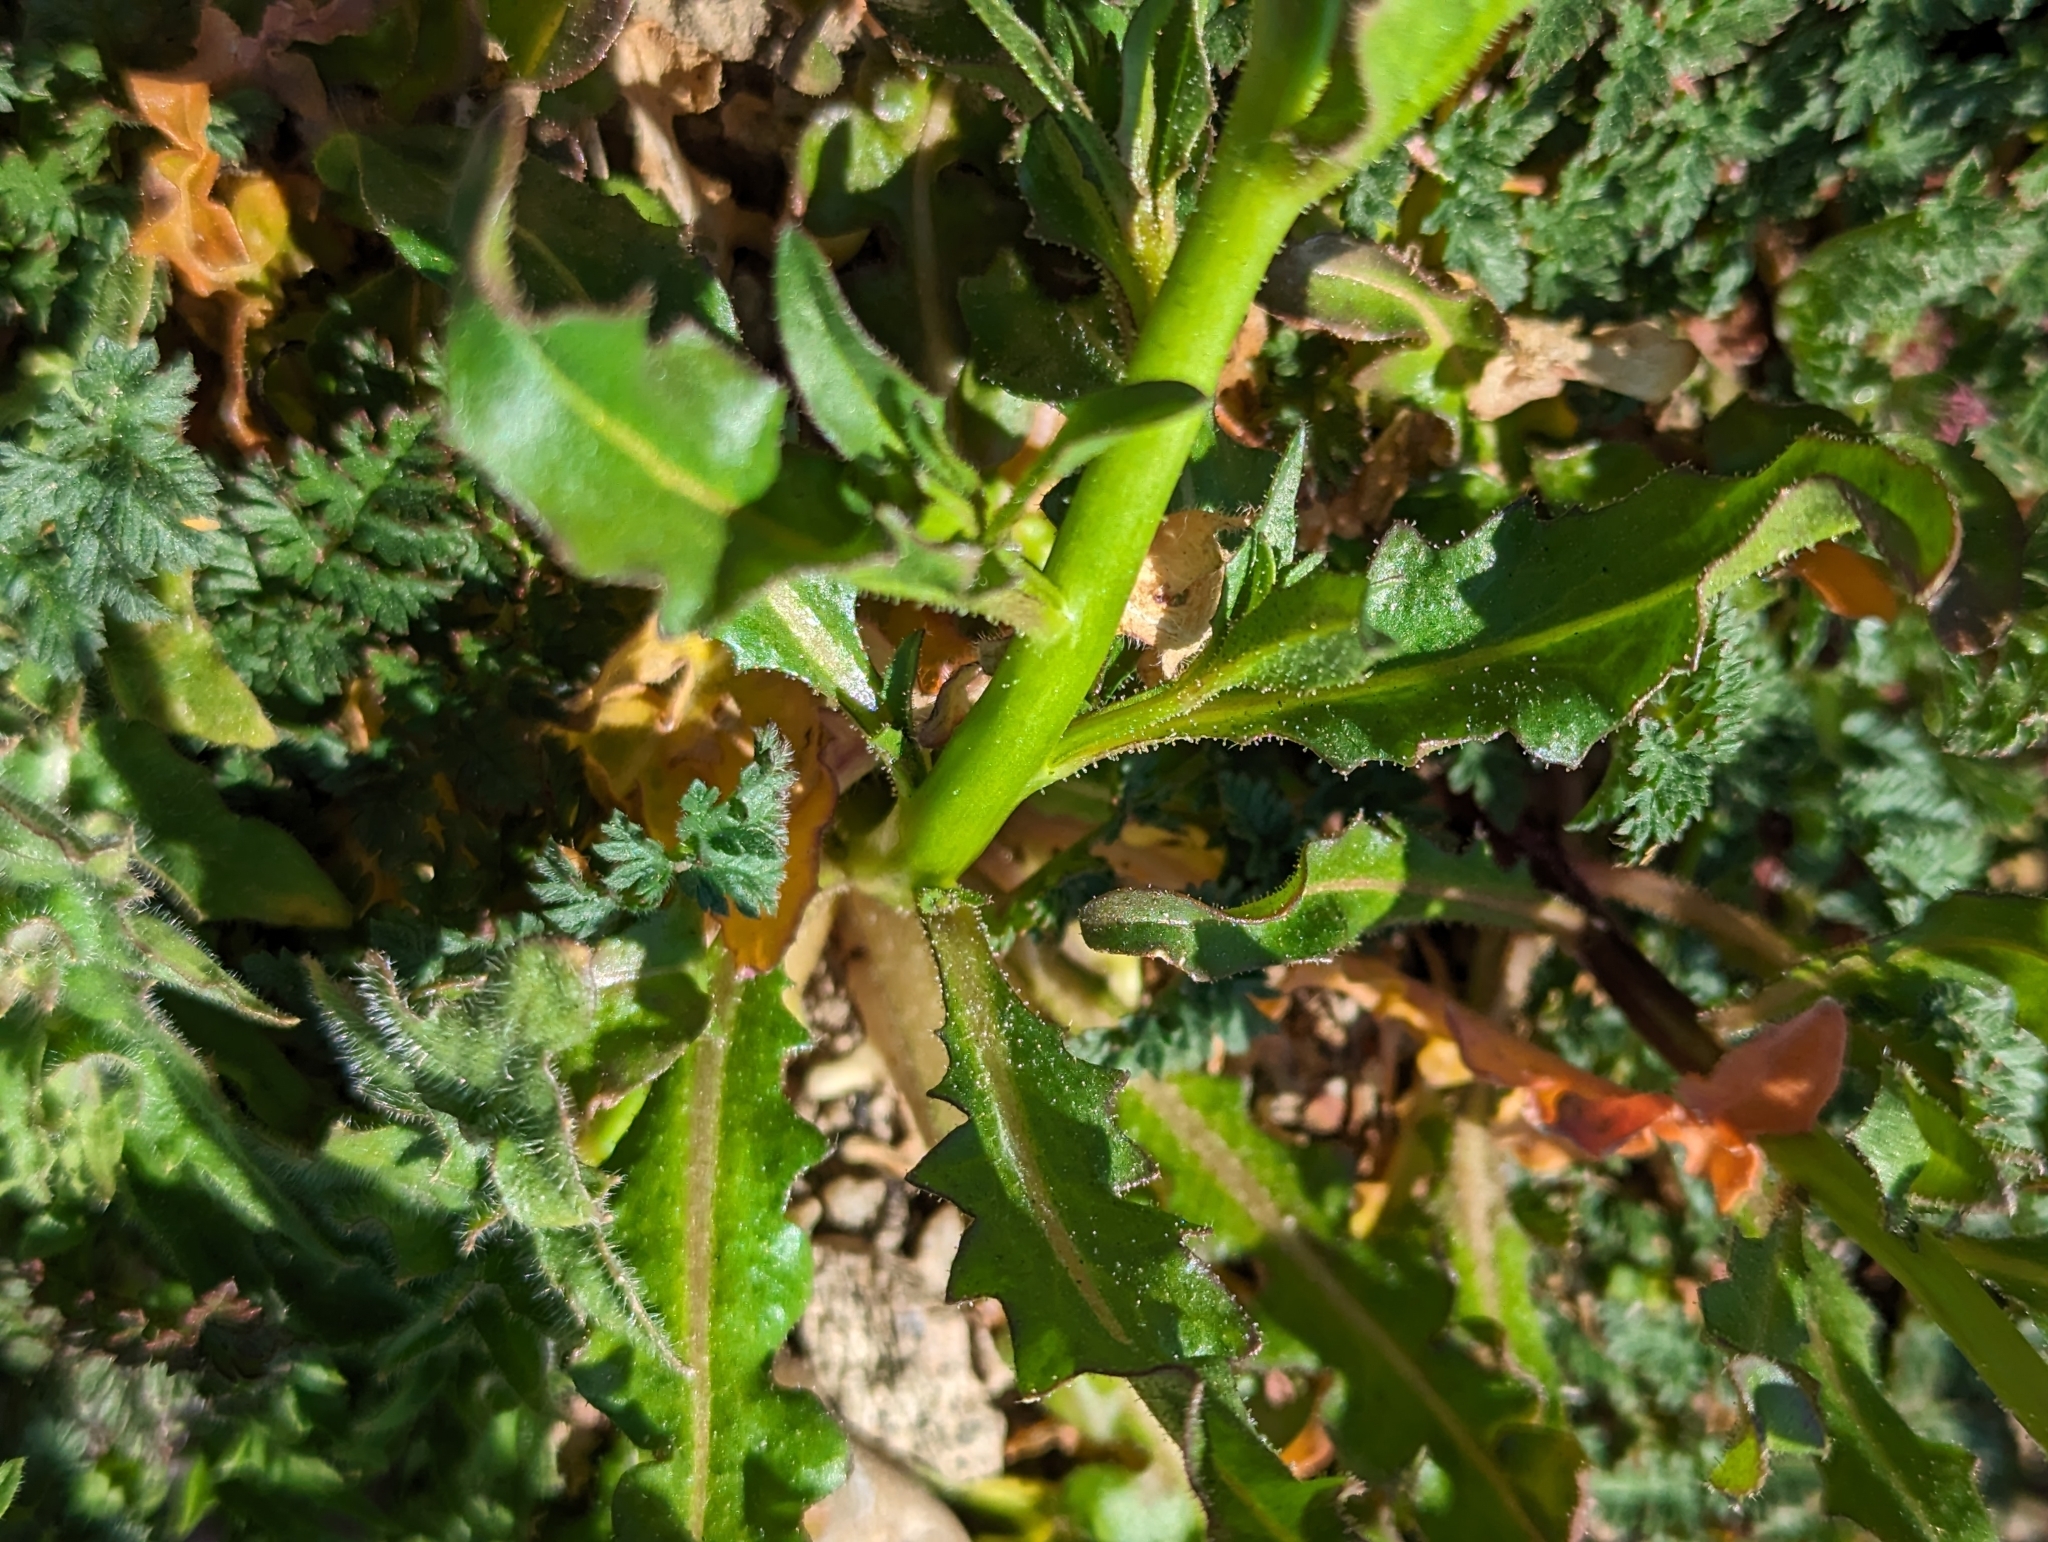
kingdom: Plantae
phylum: Tracheophyta
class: Magnoliopsida
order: Brassicales
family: Brassicaceae
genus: Chorispora
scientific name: Chorispora tenella
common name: Crossflower
